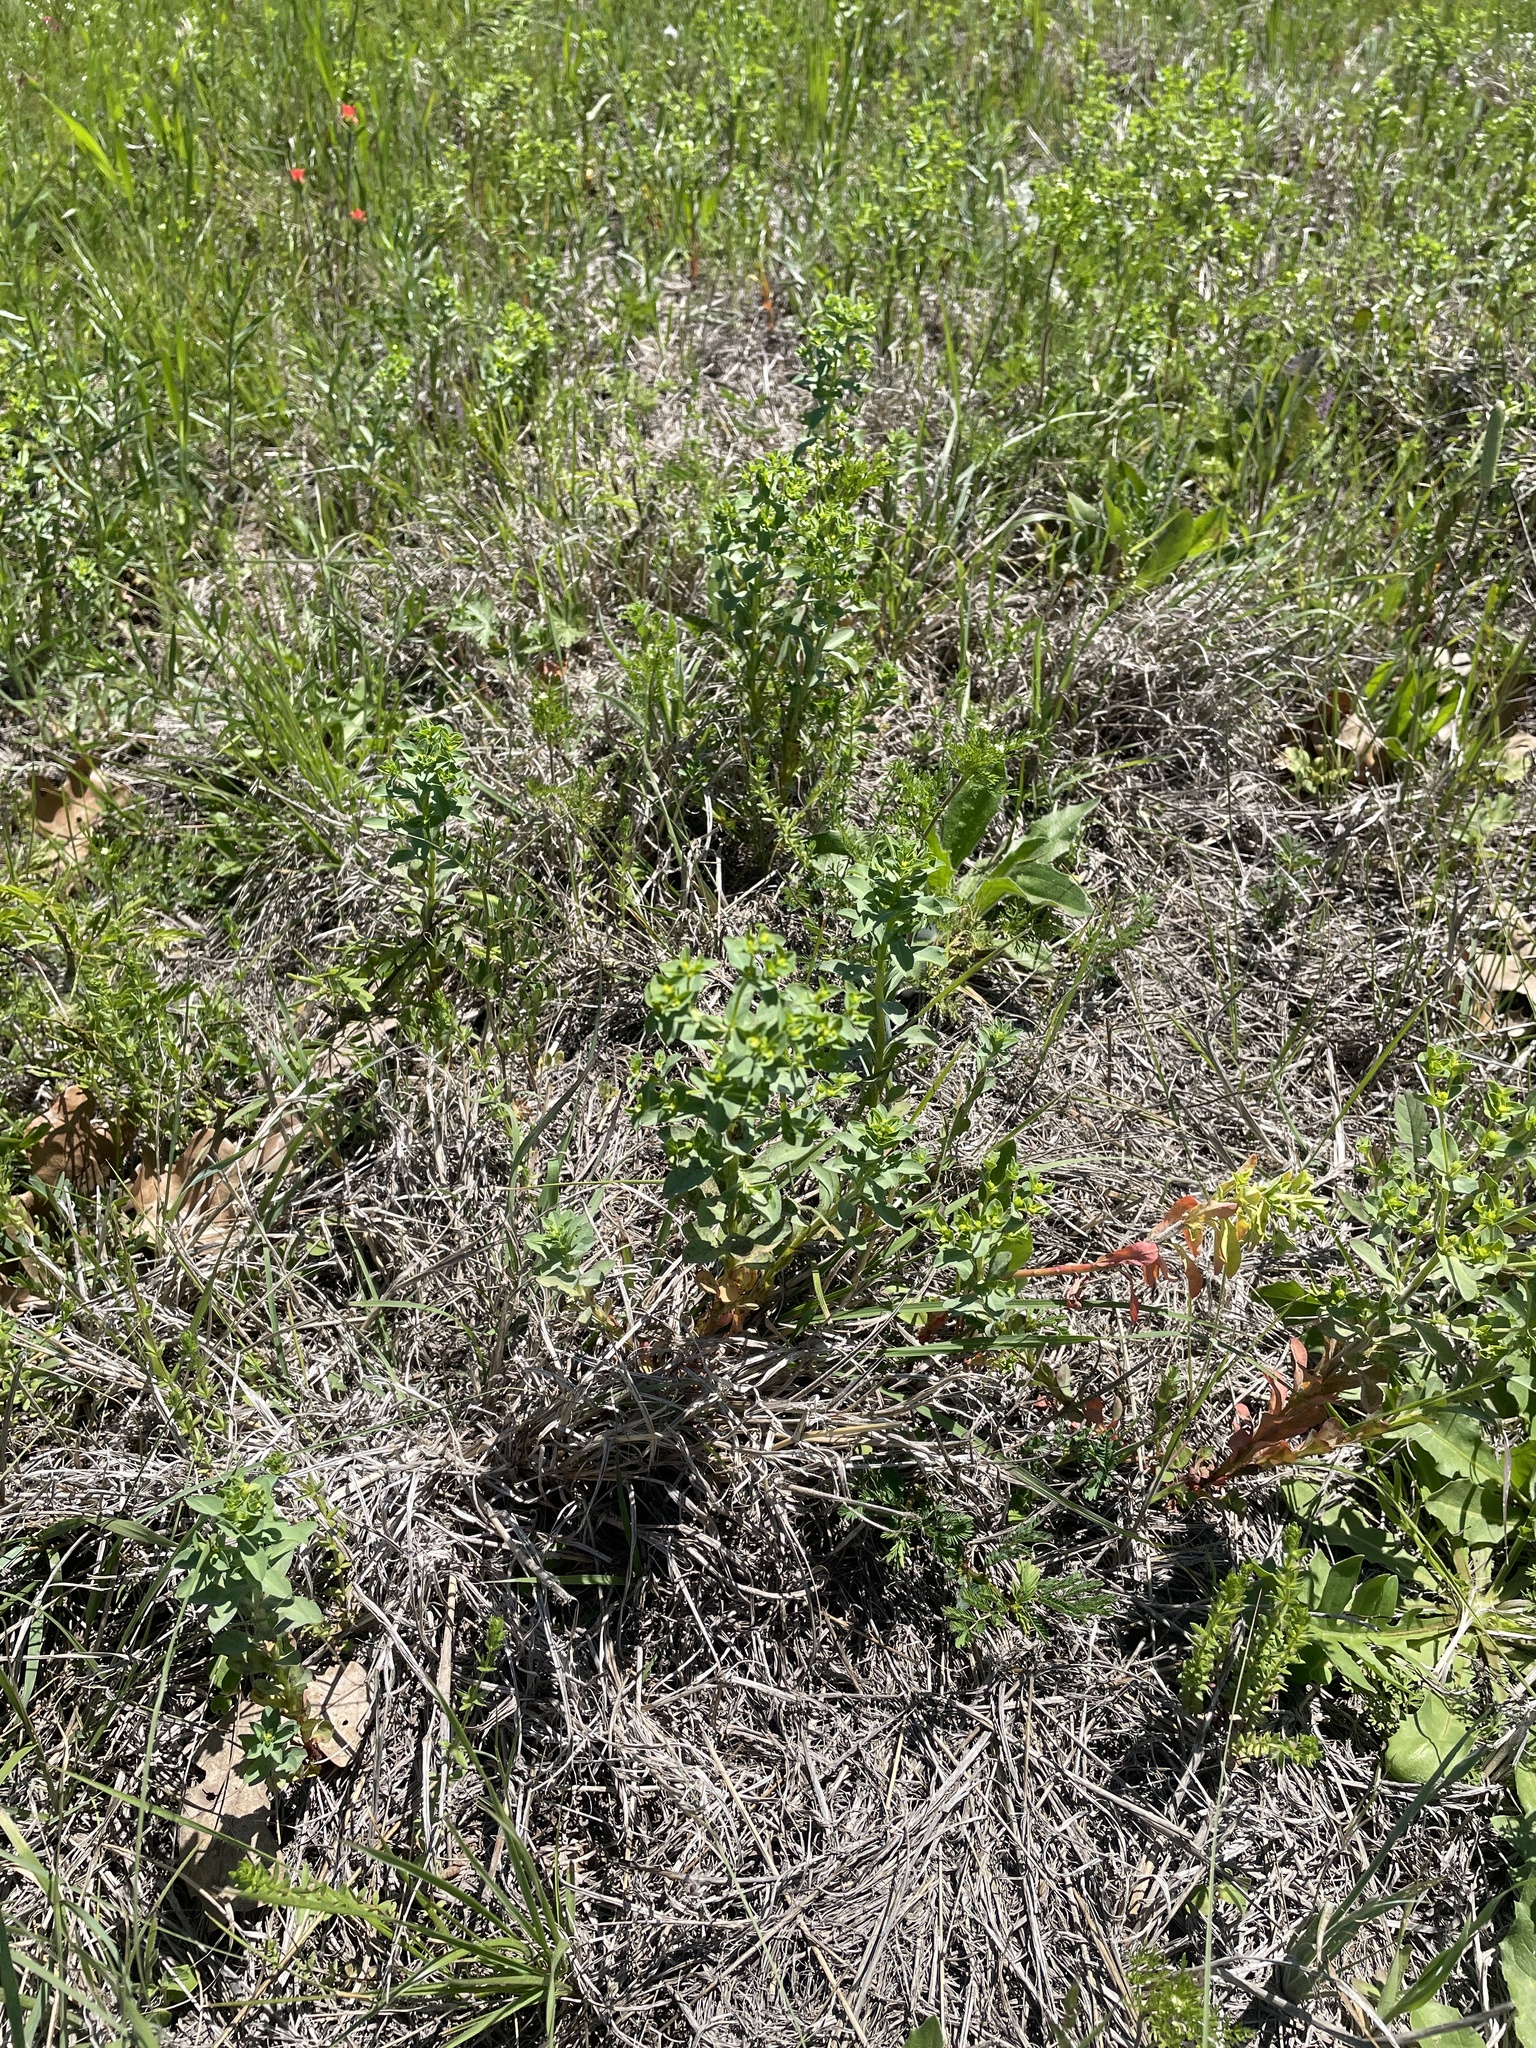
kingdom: Plantae
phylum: Tracheophyta
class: Magnoliopsida
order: Malpighiales
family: Euphorbiaceae
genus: Euphorbia
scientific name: Euphorbia spathulata
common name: Blunt spurge
